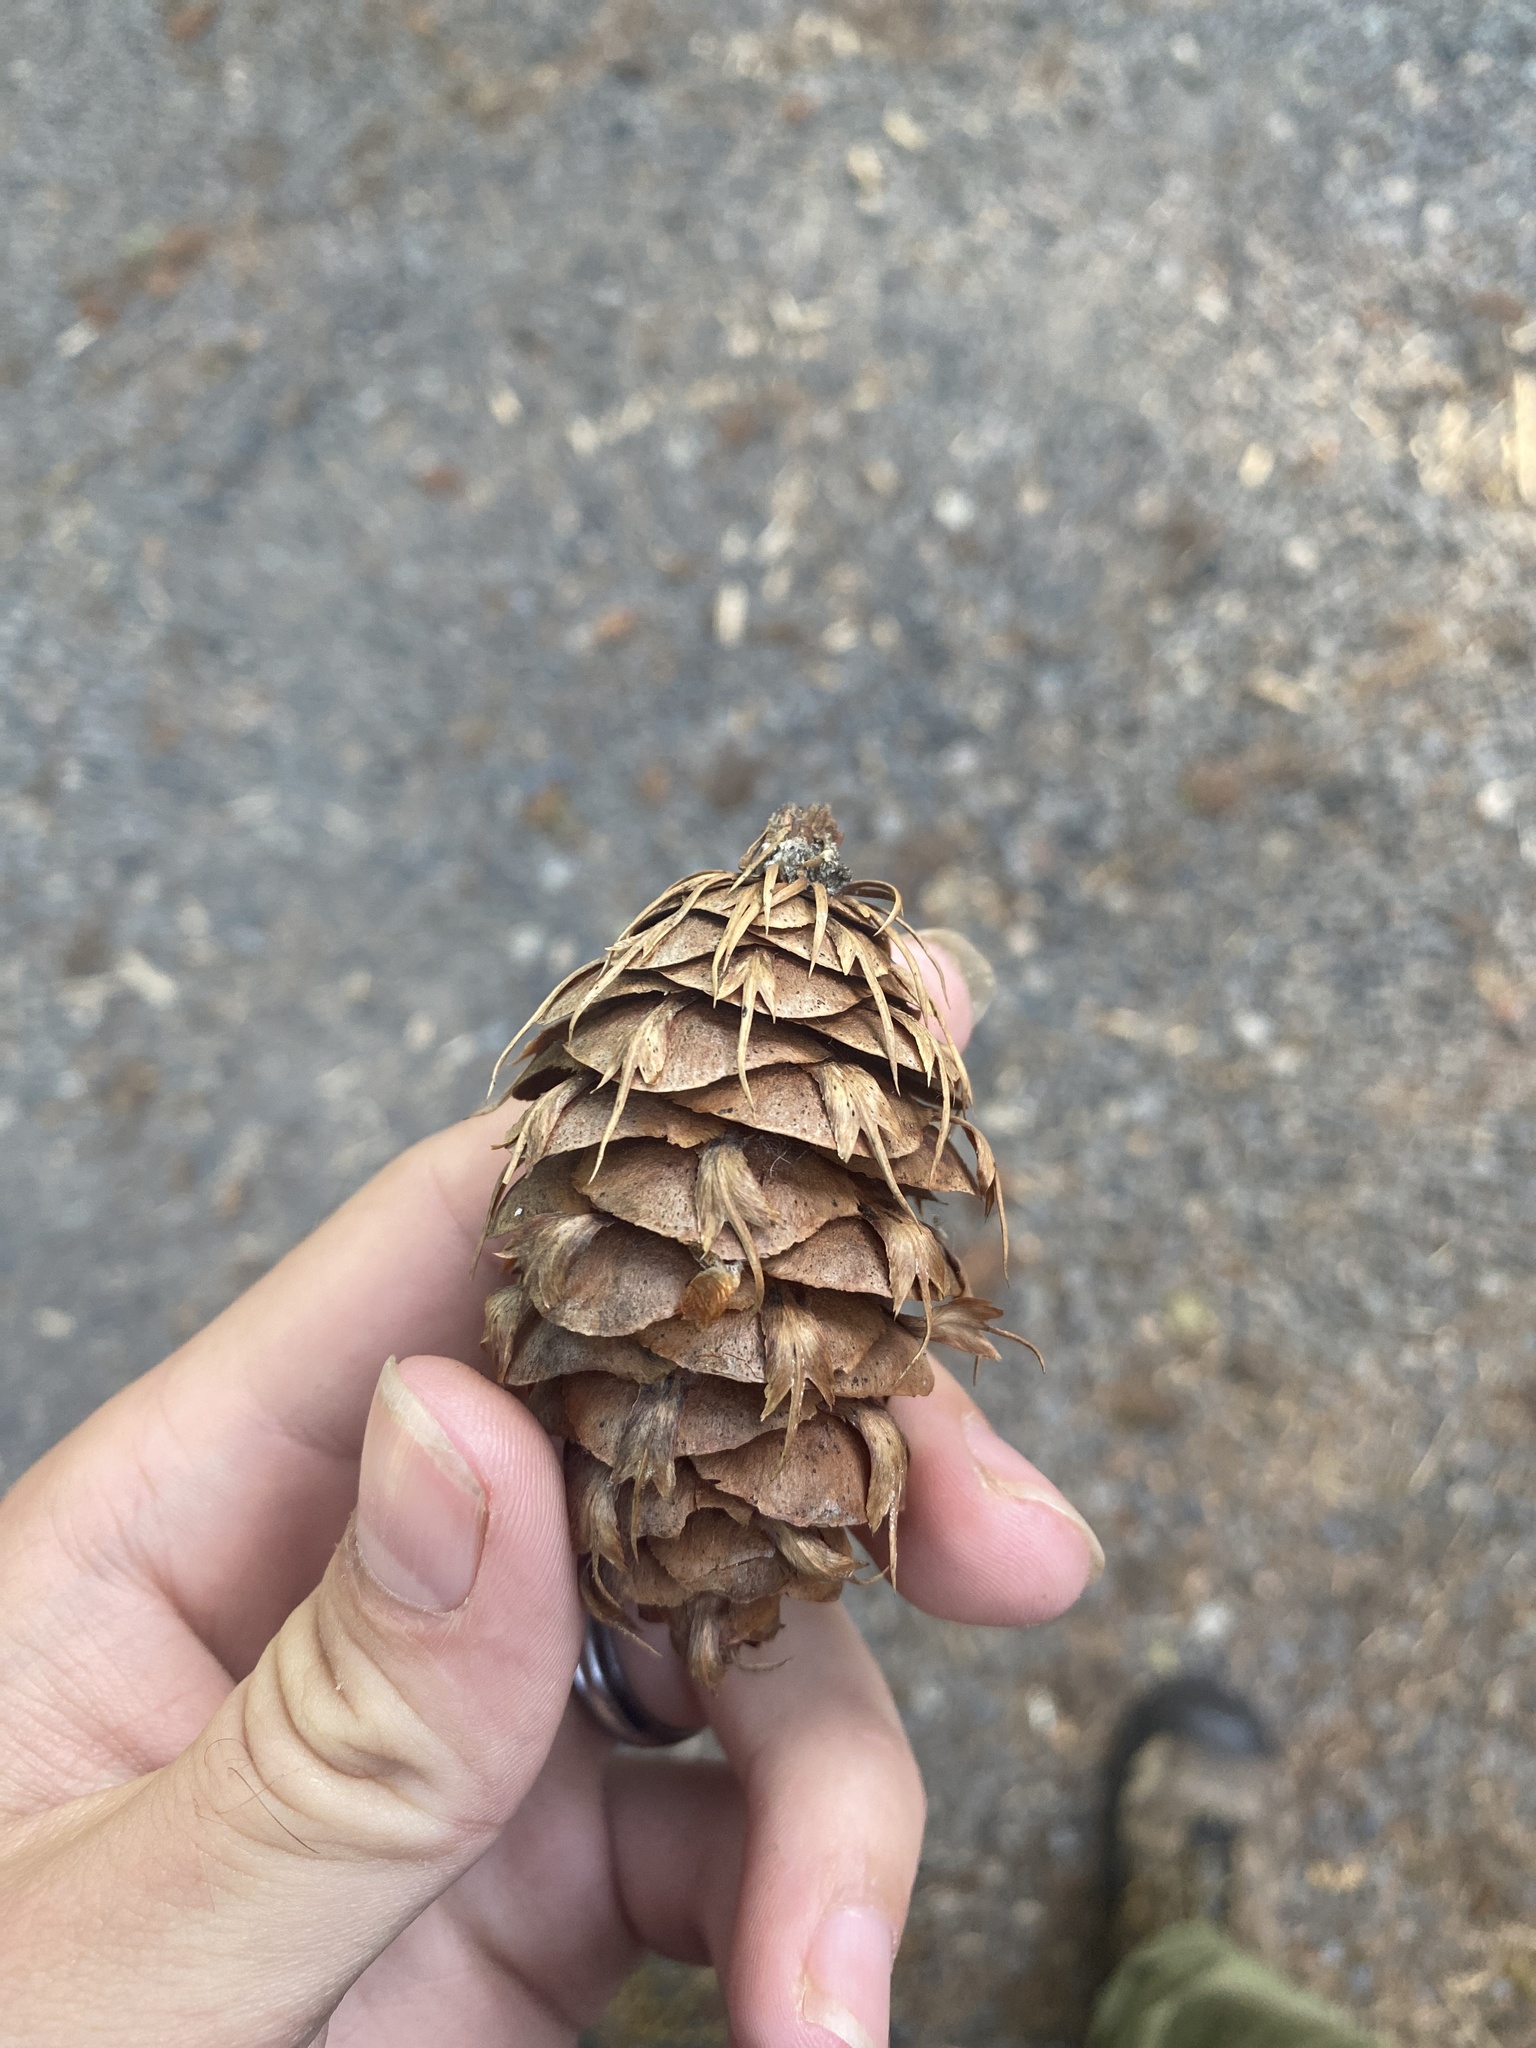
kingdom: Plantae
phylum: Tracheophyta
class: Pinopsida
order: Pinales
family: Pinaceae
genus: Pseudotsuga
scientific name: Pseudotsuga menziesii
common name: Douglas fir
